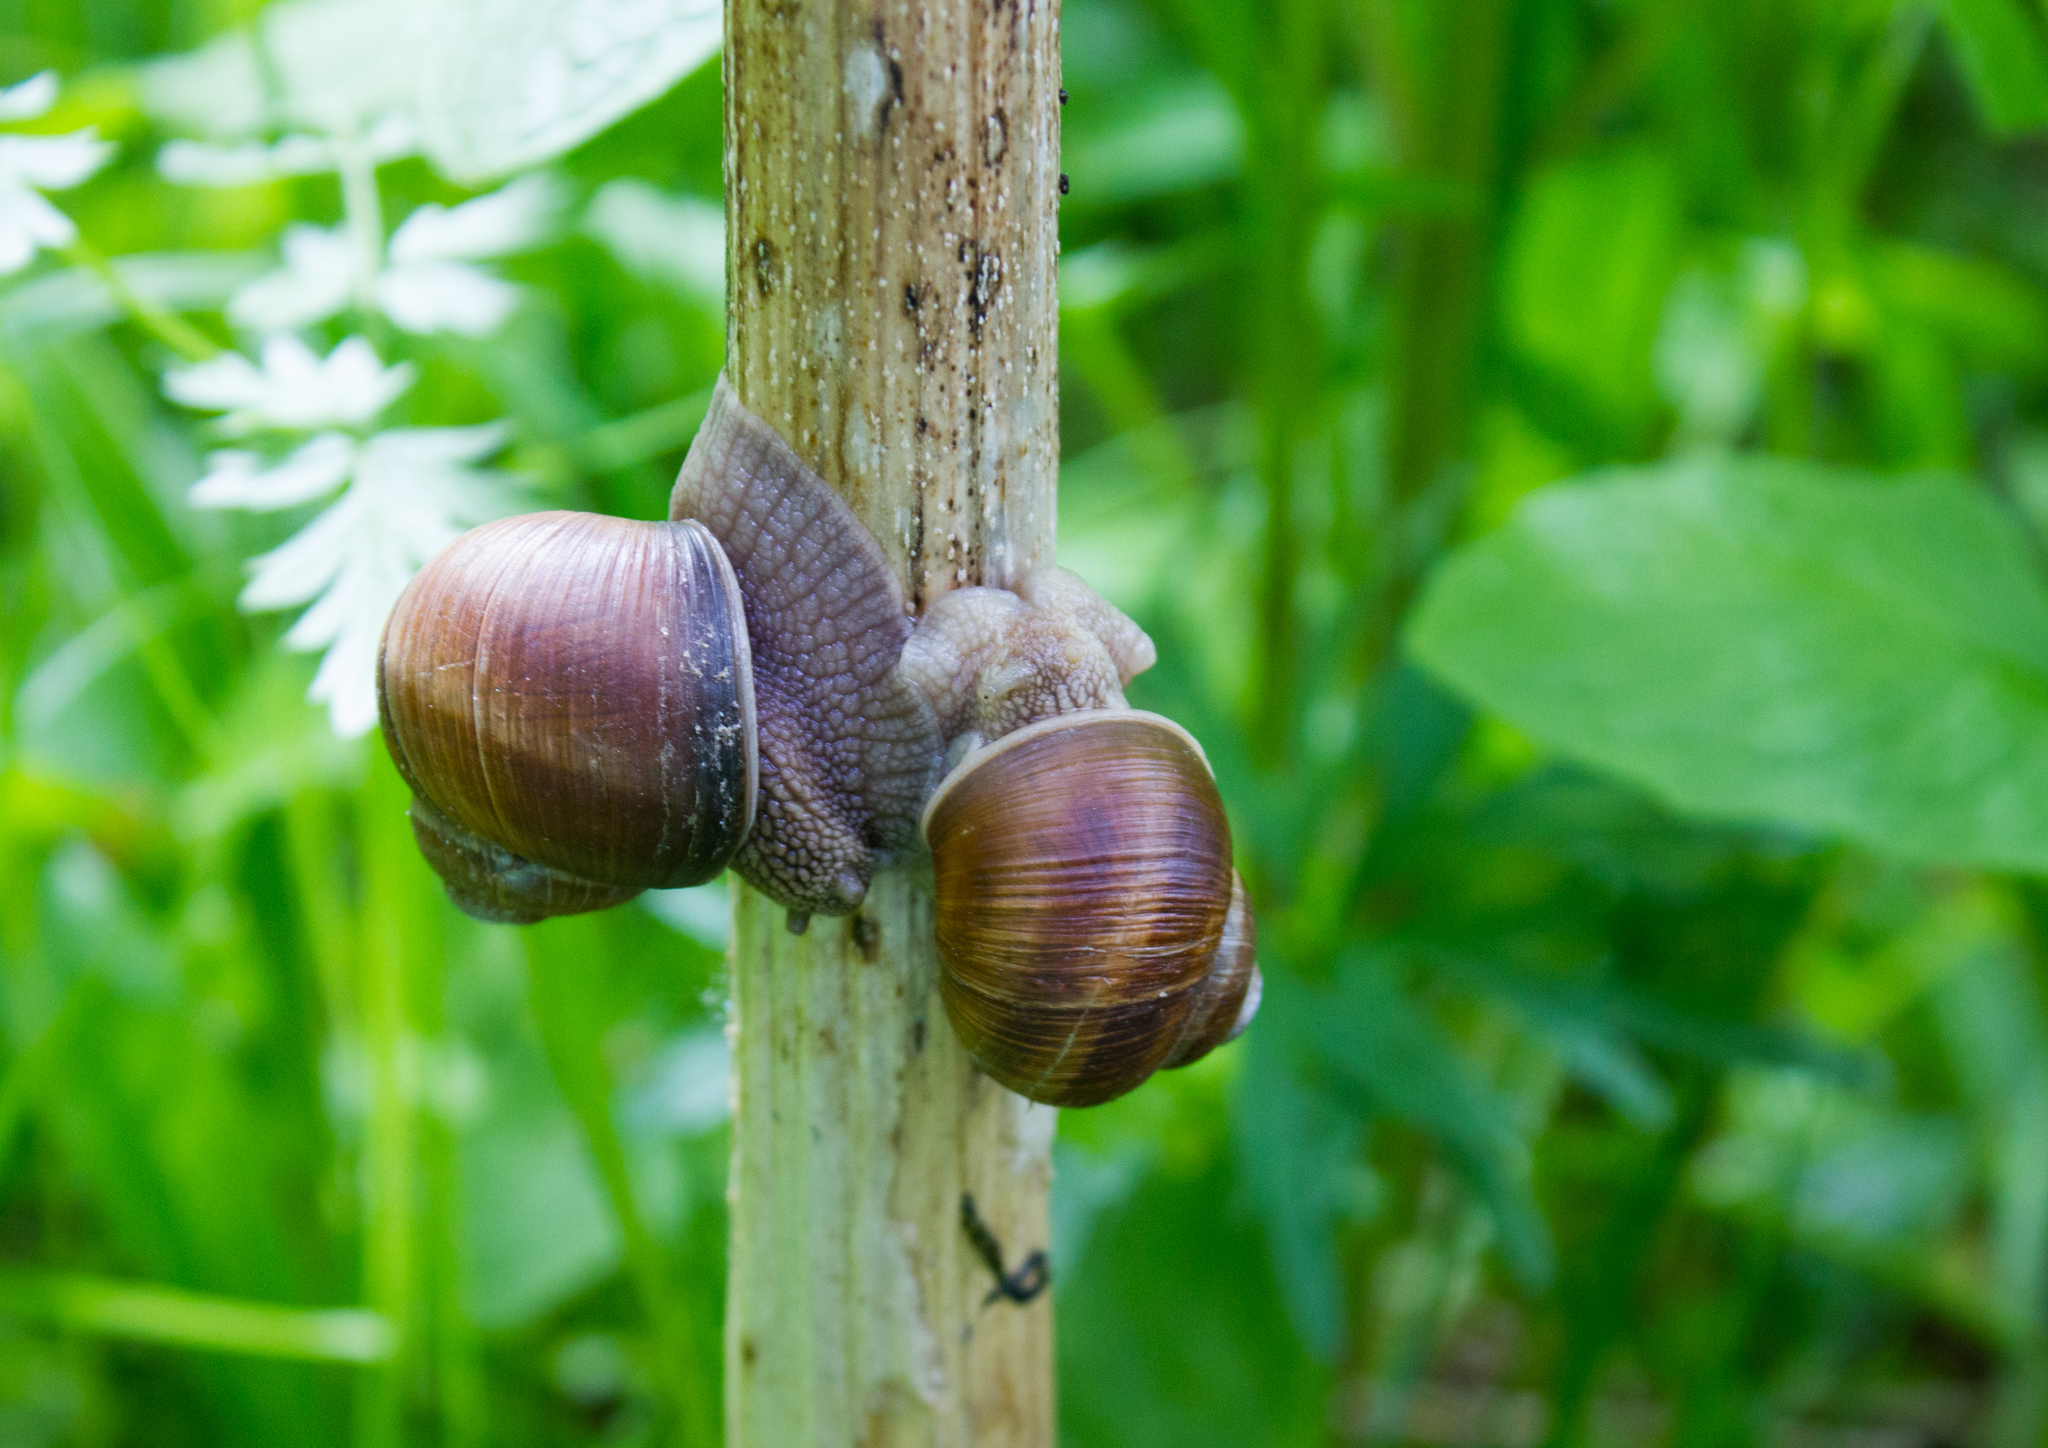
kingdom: Animalia
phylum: Mollusca
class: Gastropoda
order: Stylommatophora
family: Helicidae
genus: Helix
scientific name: Helix pomatia
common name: Roman snail
